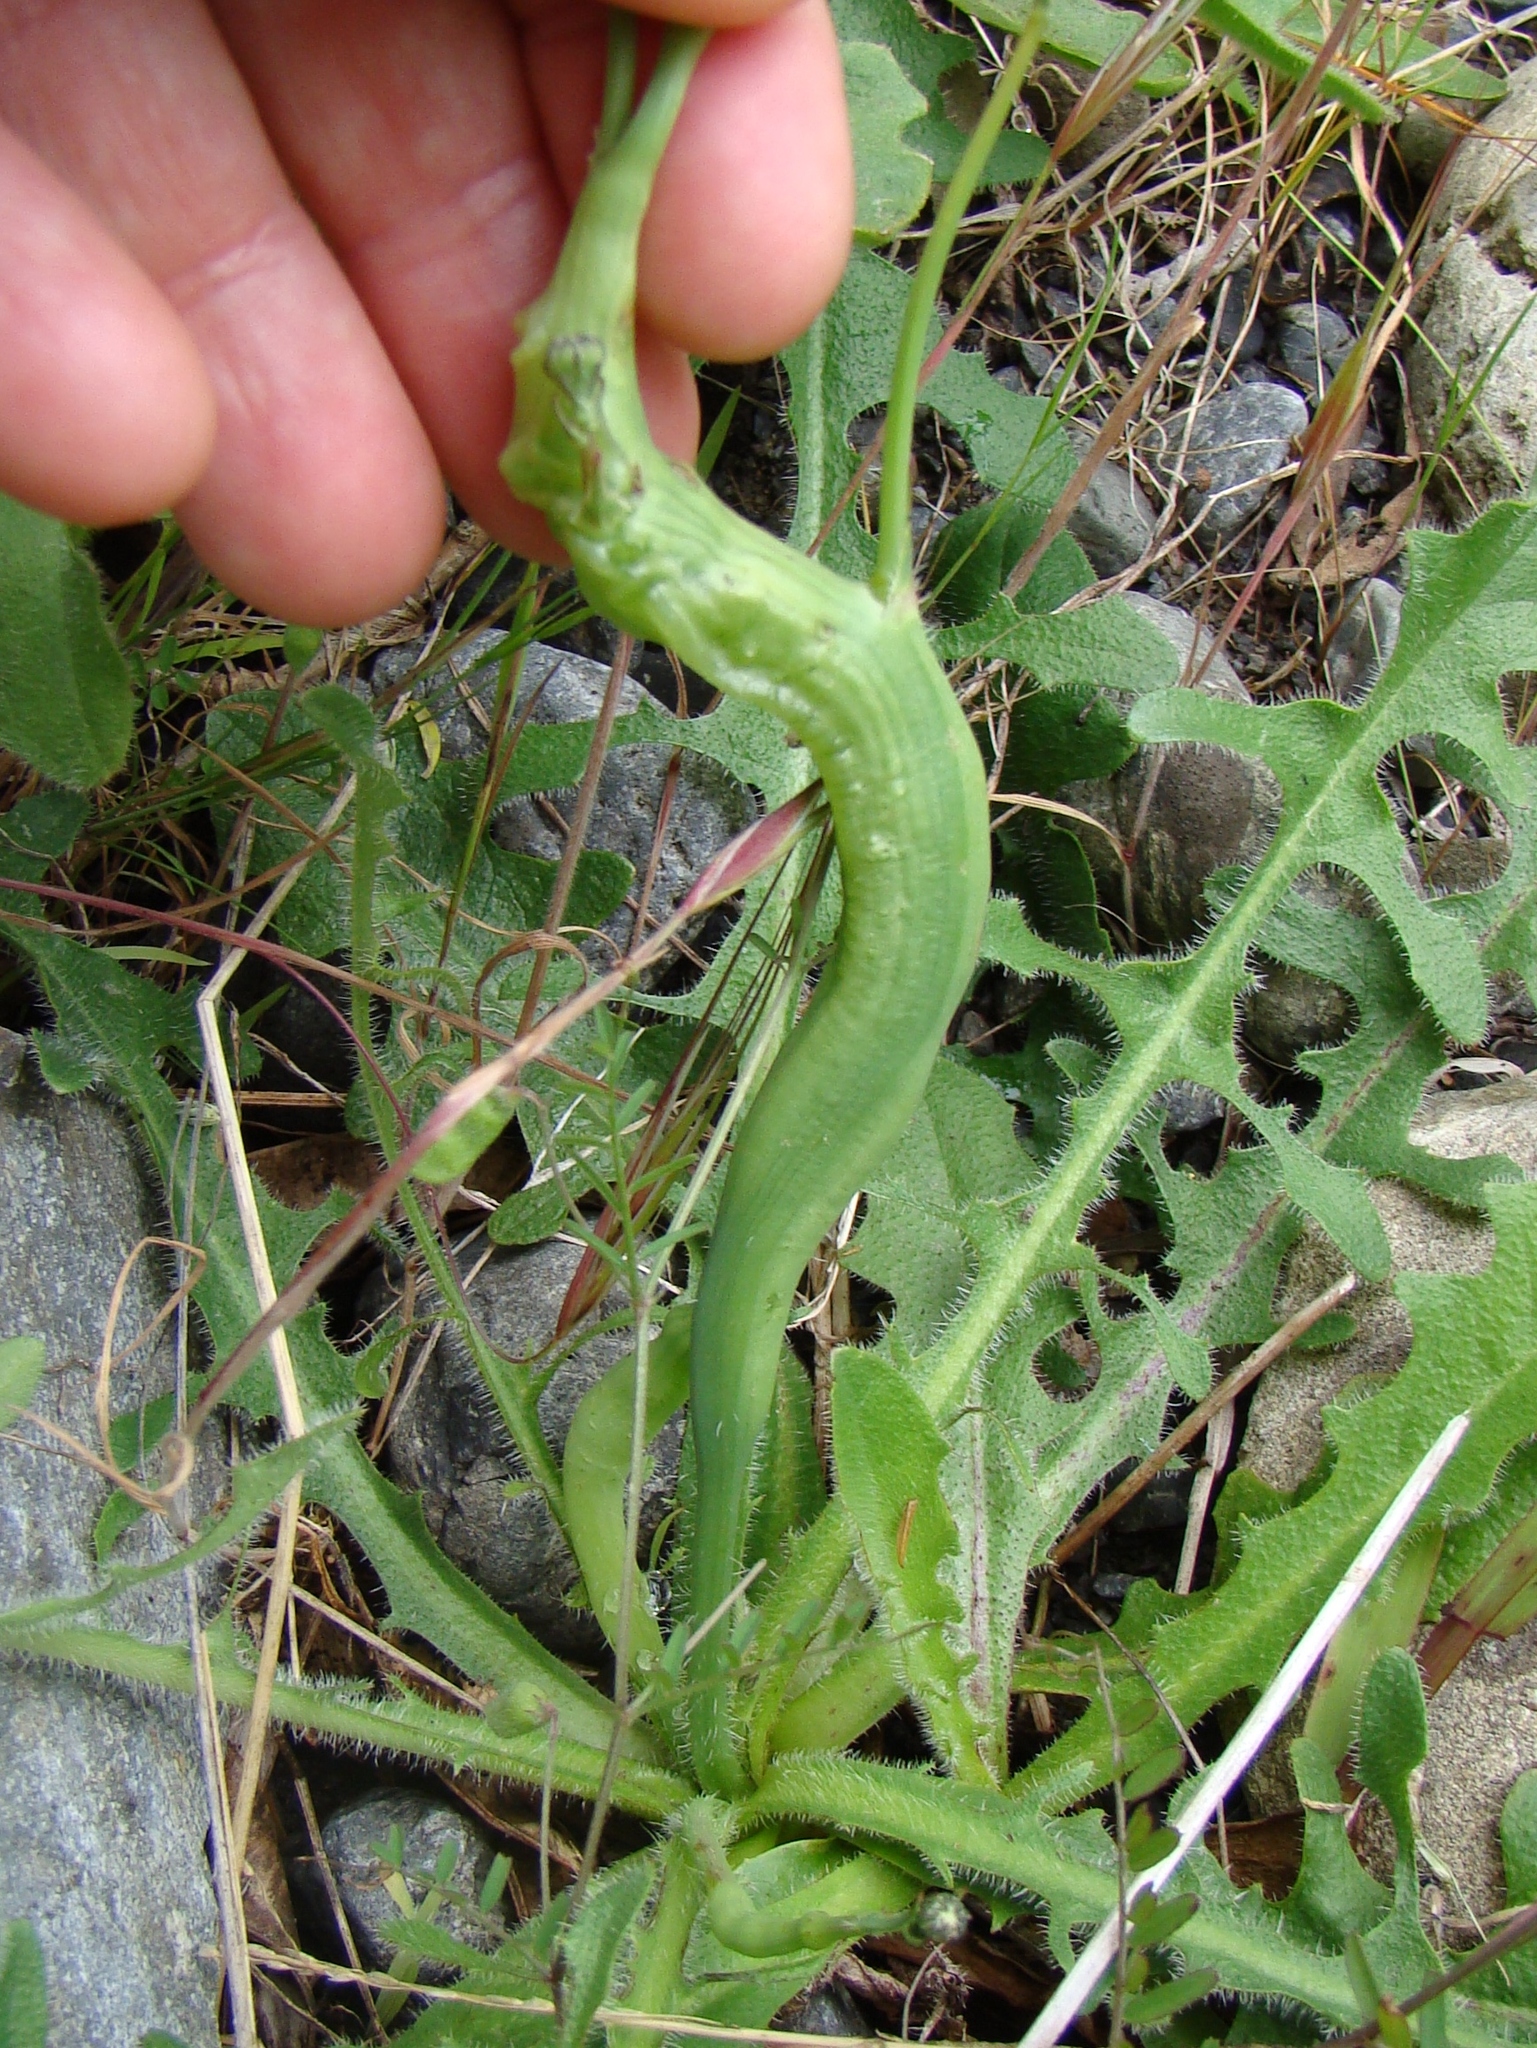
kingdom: Animalia
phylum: Arthropoda
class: Insecta
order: Hymenoptera
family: Cynipidae
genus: Phanacis
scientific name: Phanacis hypochoeridis
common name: Gall wasp
